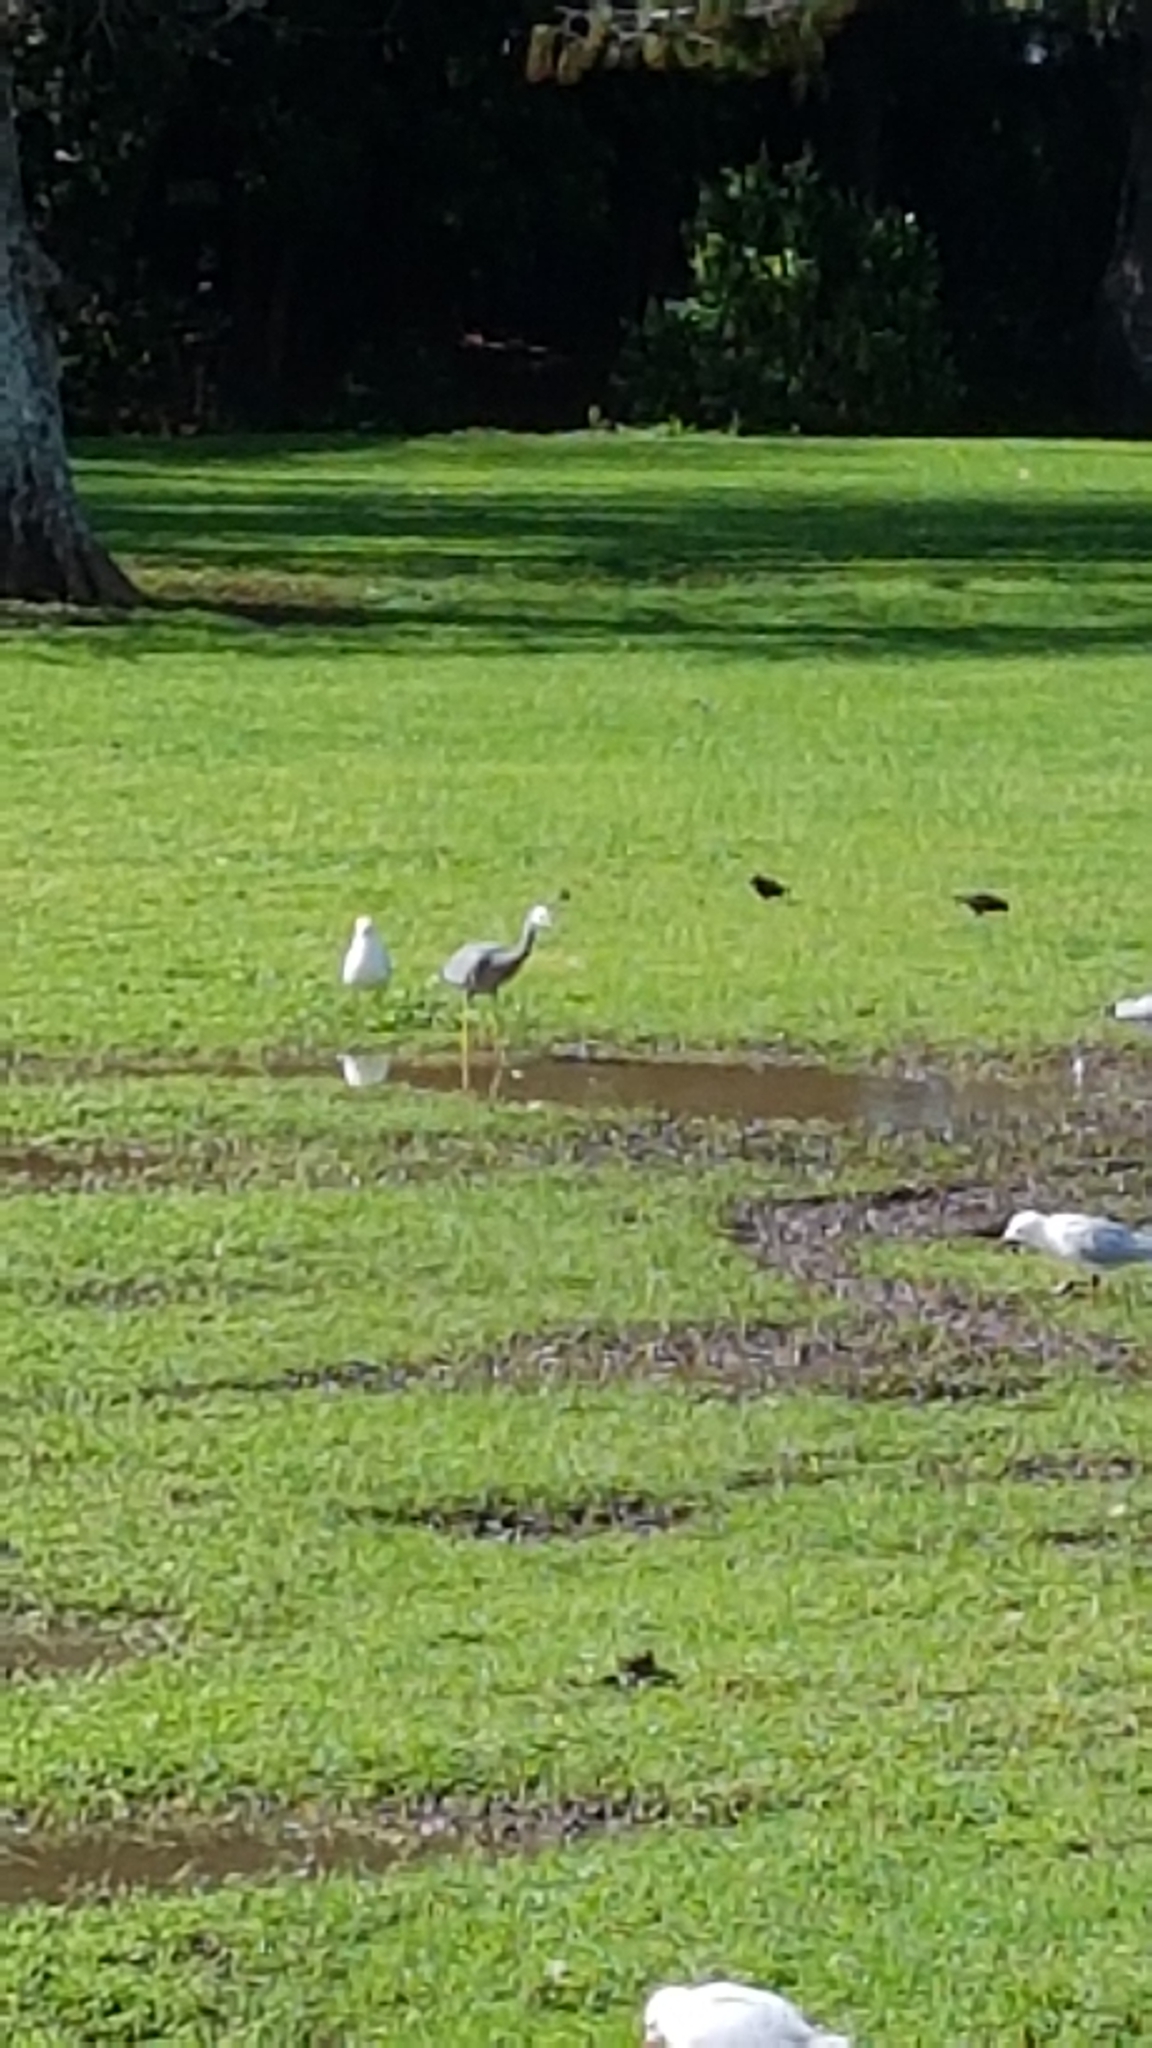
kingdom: Animalia
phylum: Chordata
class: Aves
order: Pelecaniformes
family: Ardeidae
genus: Egretta
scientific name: Egretta novaehollandiae
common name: White-faced heron
